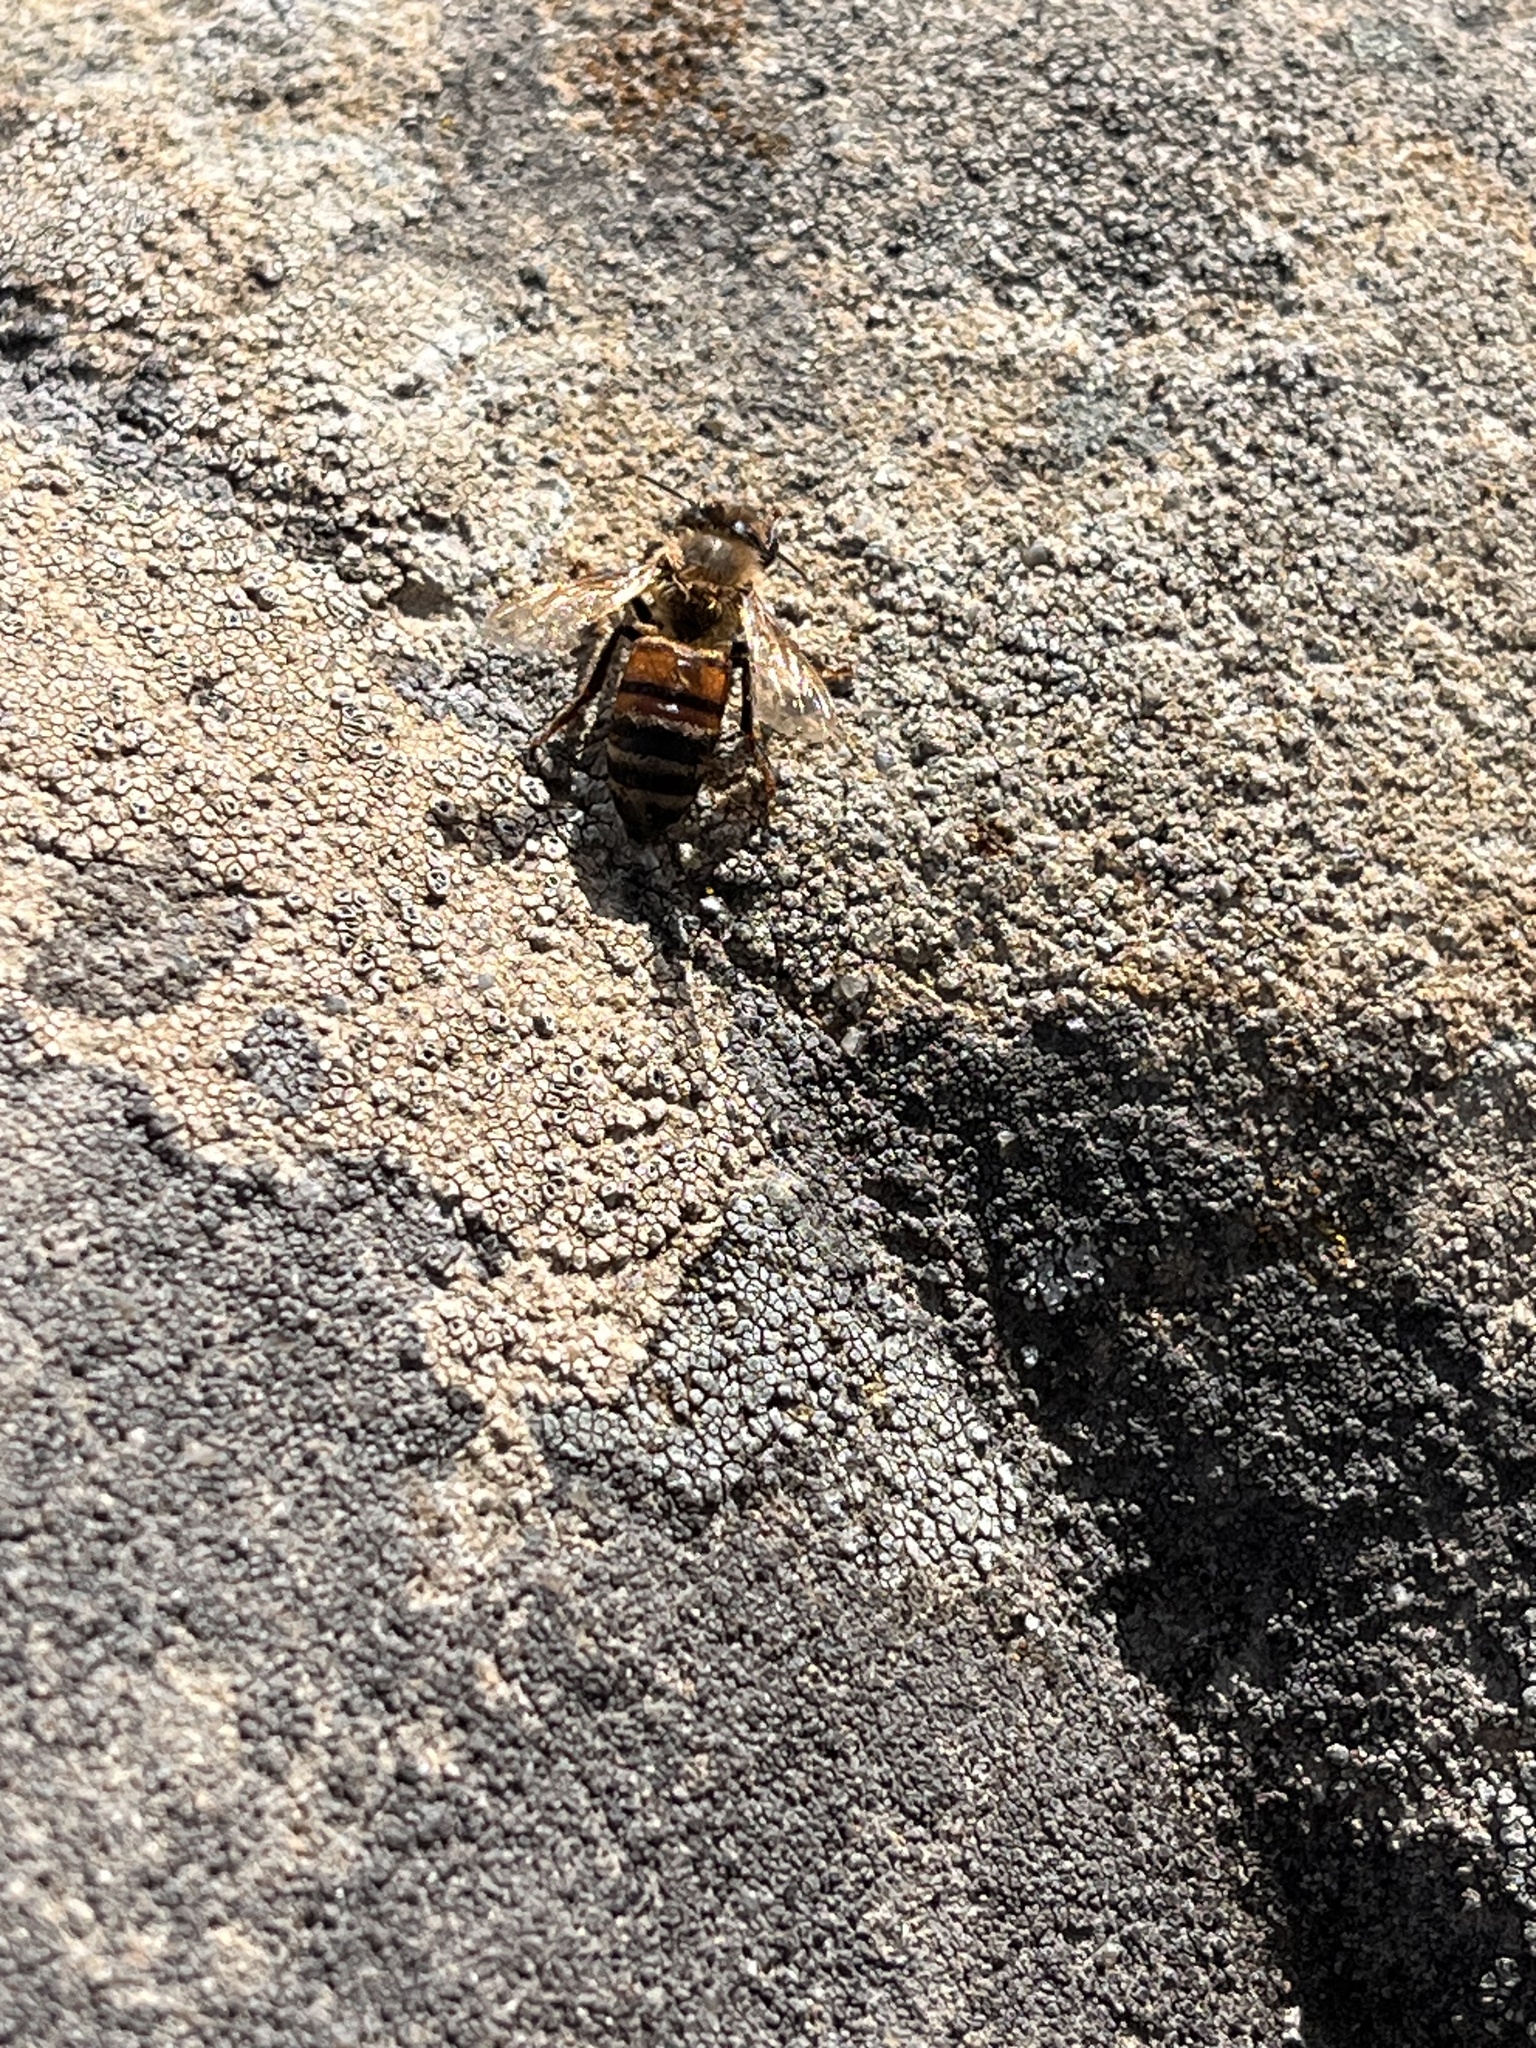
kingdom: Animalia
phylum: Arthropoda
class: Insecta
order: Hymenoptera
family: Apidae
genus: Apis
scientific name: Apis mellifera
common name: Honey bee
